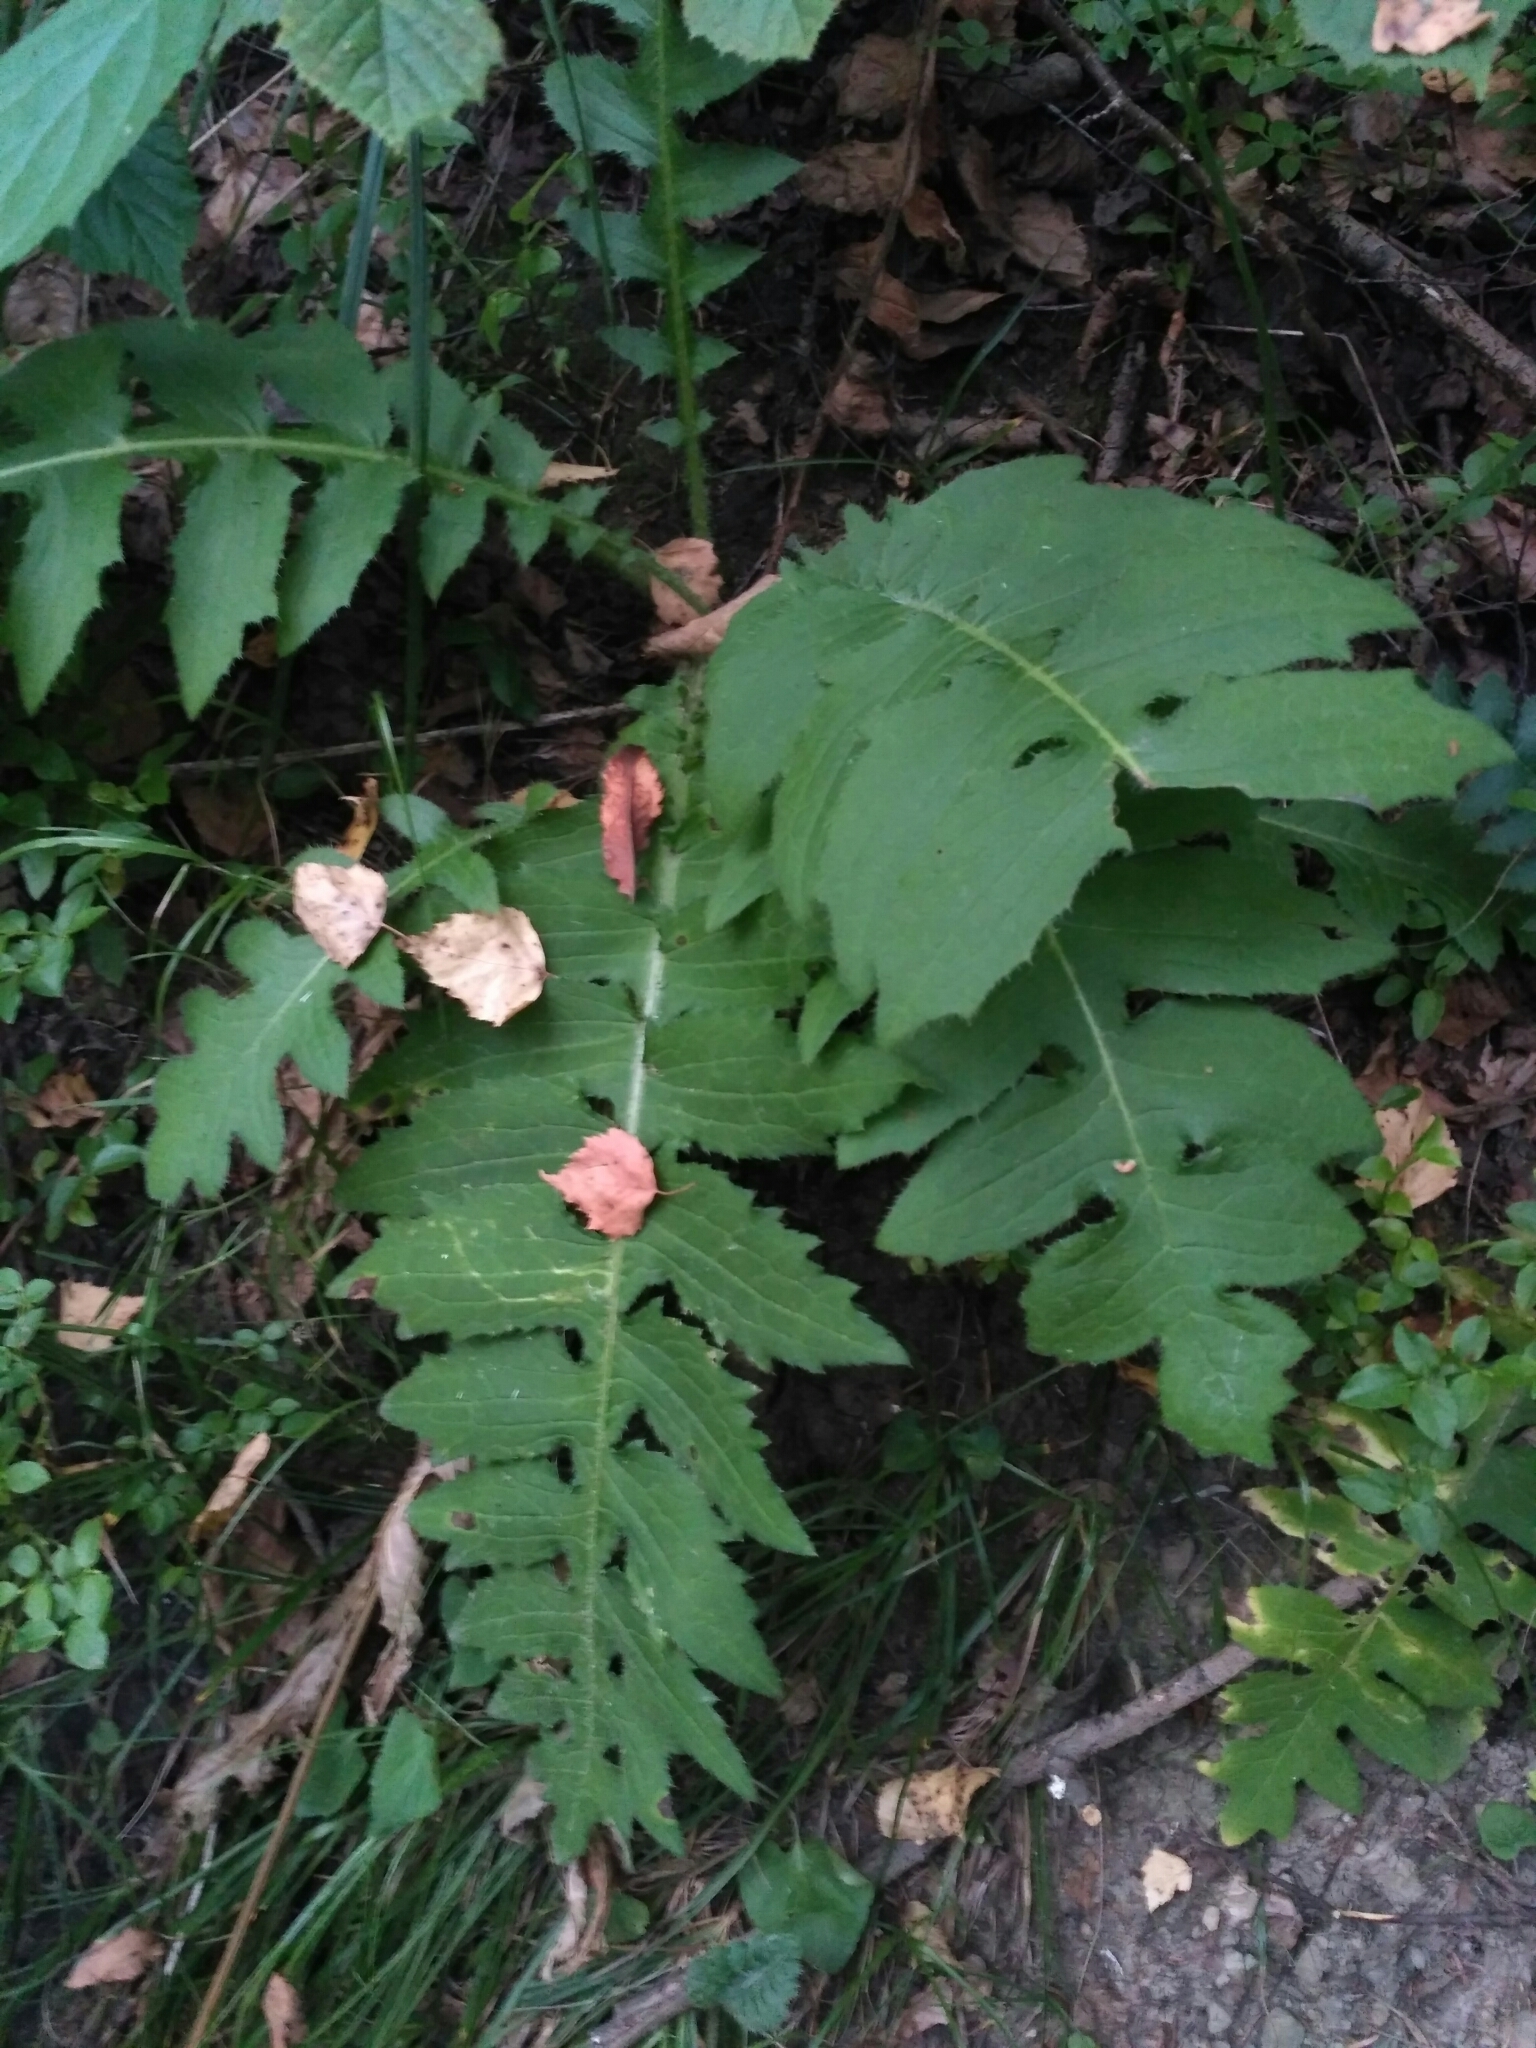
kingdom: Plantae
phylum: Tracheophyta
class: Magnoliopsida
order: Asterales
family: Asteraceae
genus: Cirsium
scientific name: Cirsium erisithales
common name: Yellow thistle
